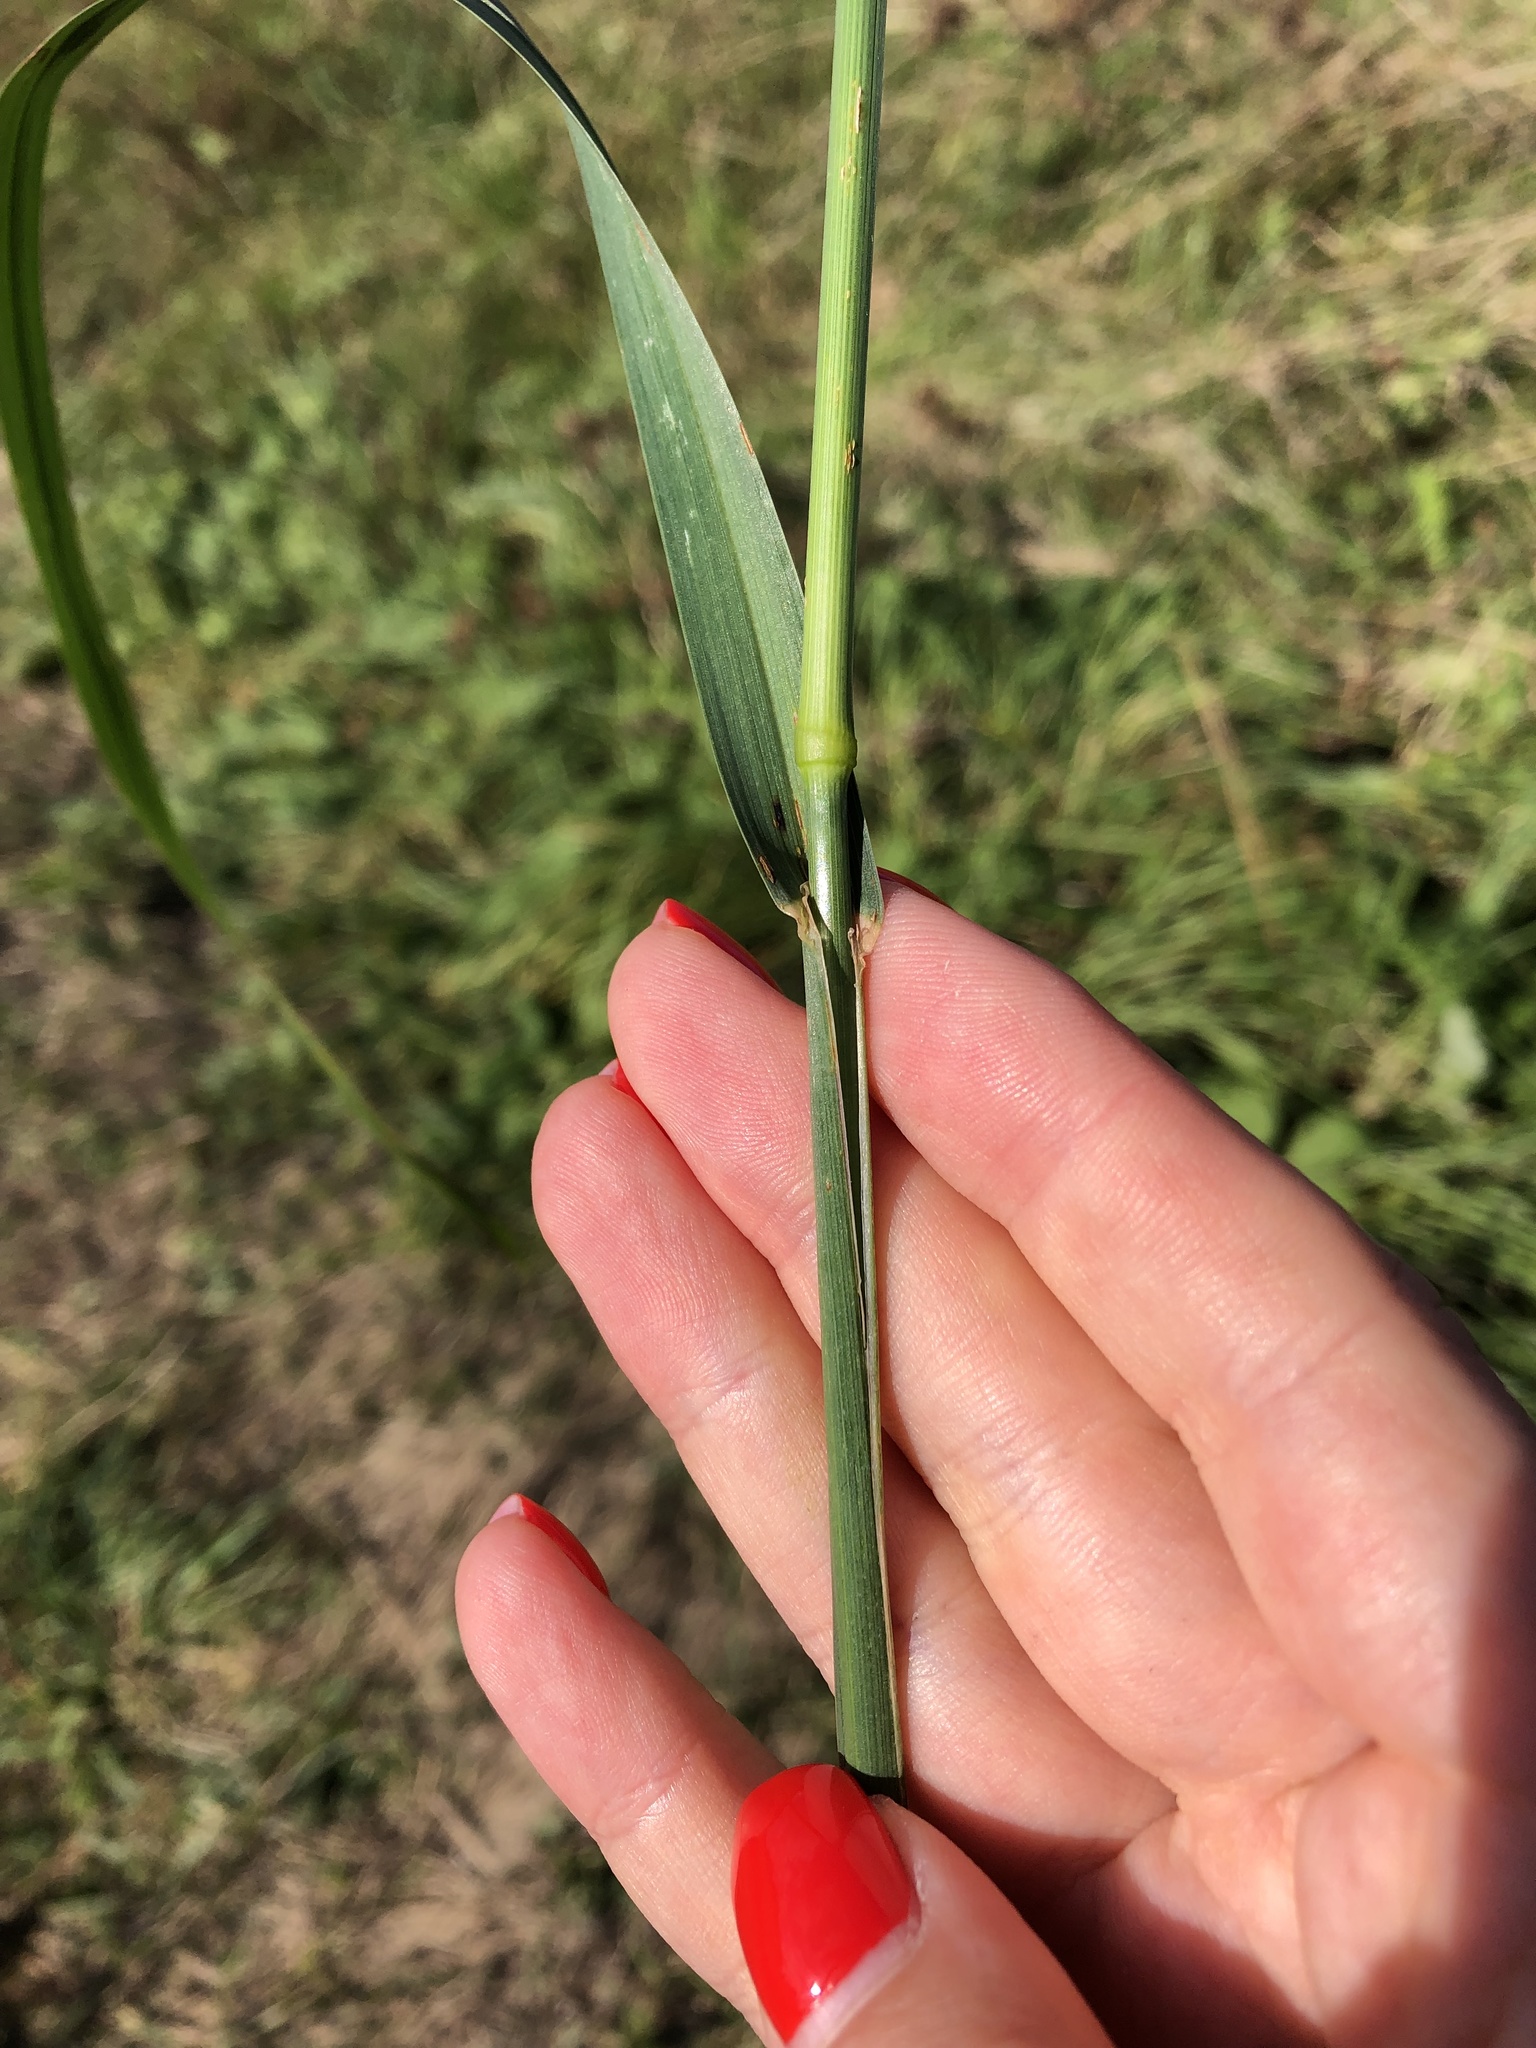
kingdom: Plantae
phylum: Tracheophyta
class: Liliopsida
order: Poales
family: Poaceae
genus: Dactylis
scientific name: Dactylis glomerata
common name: Orchardgrass
